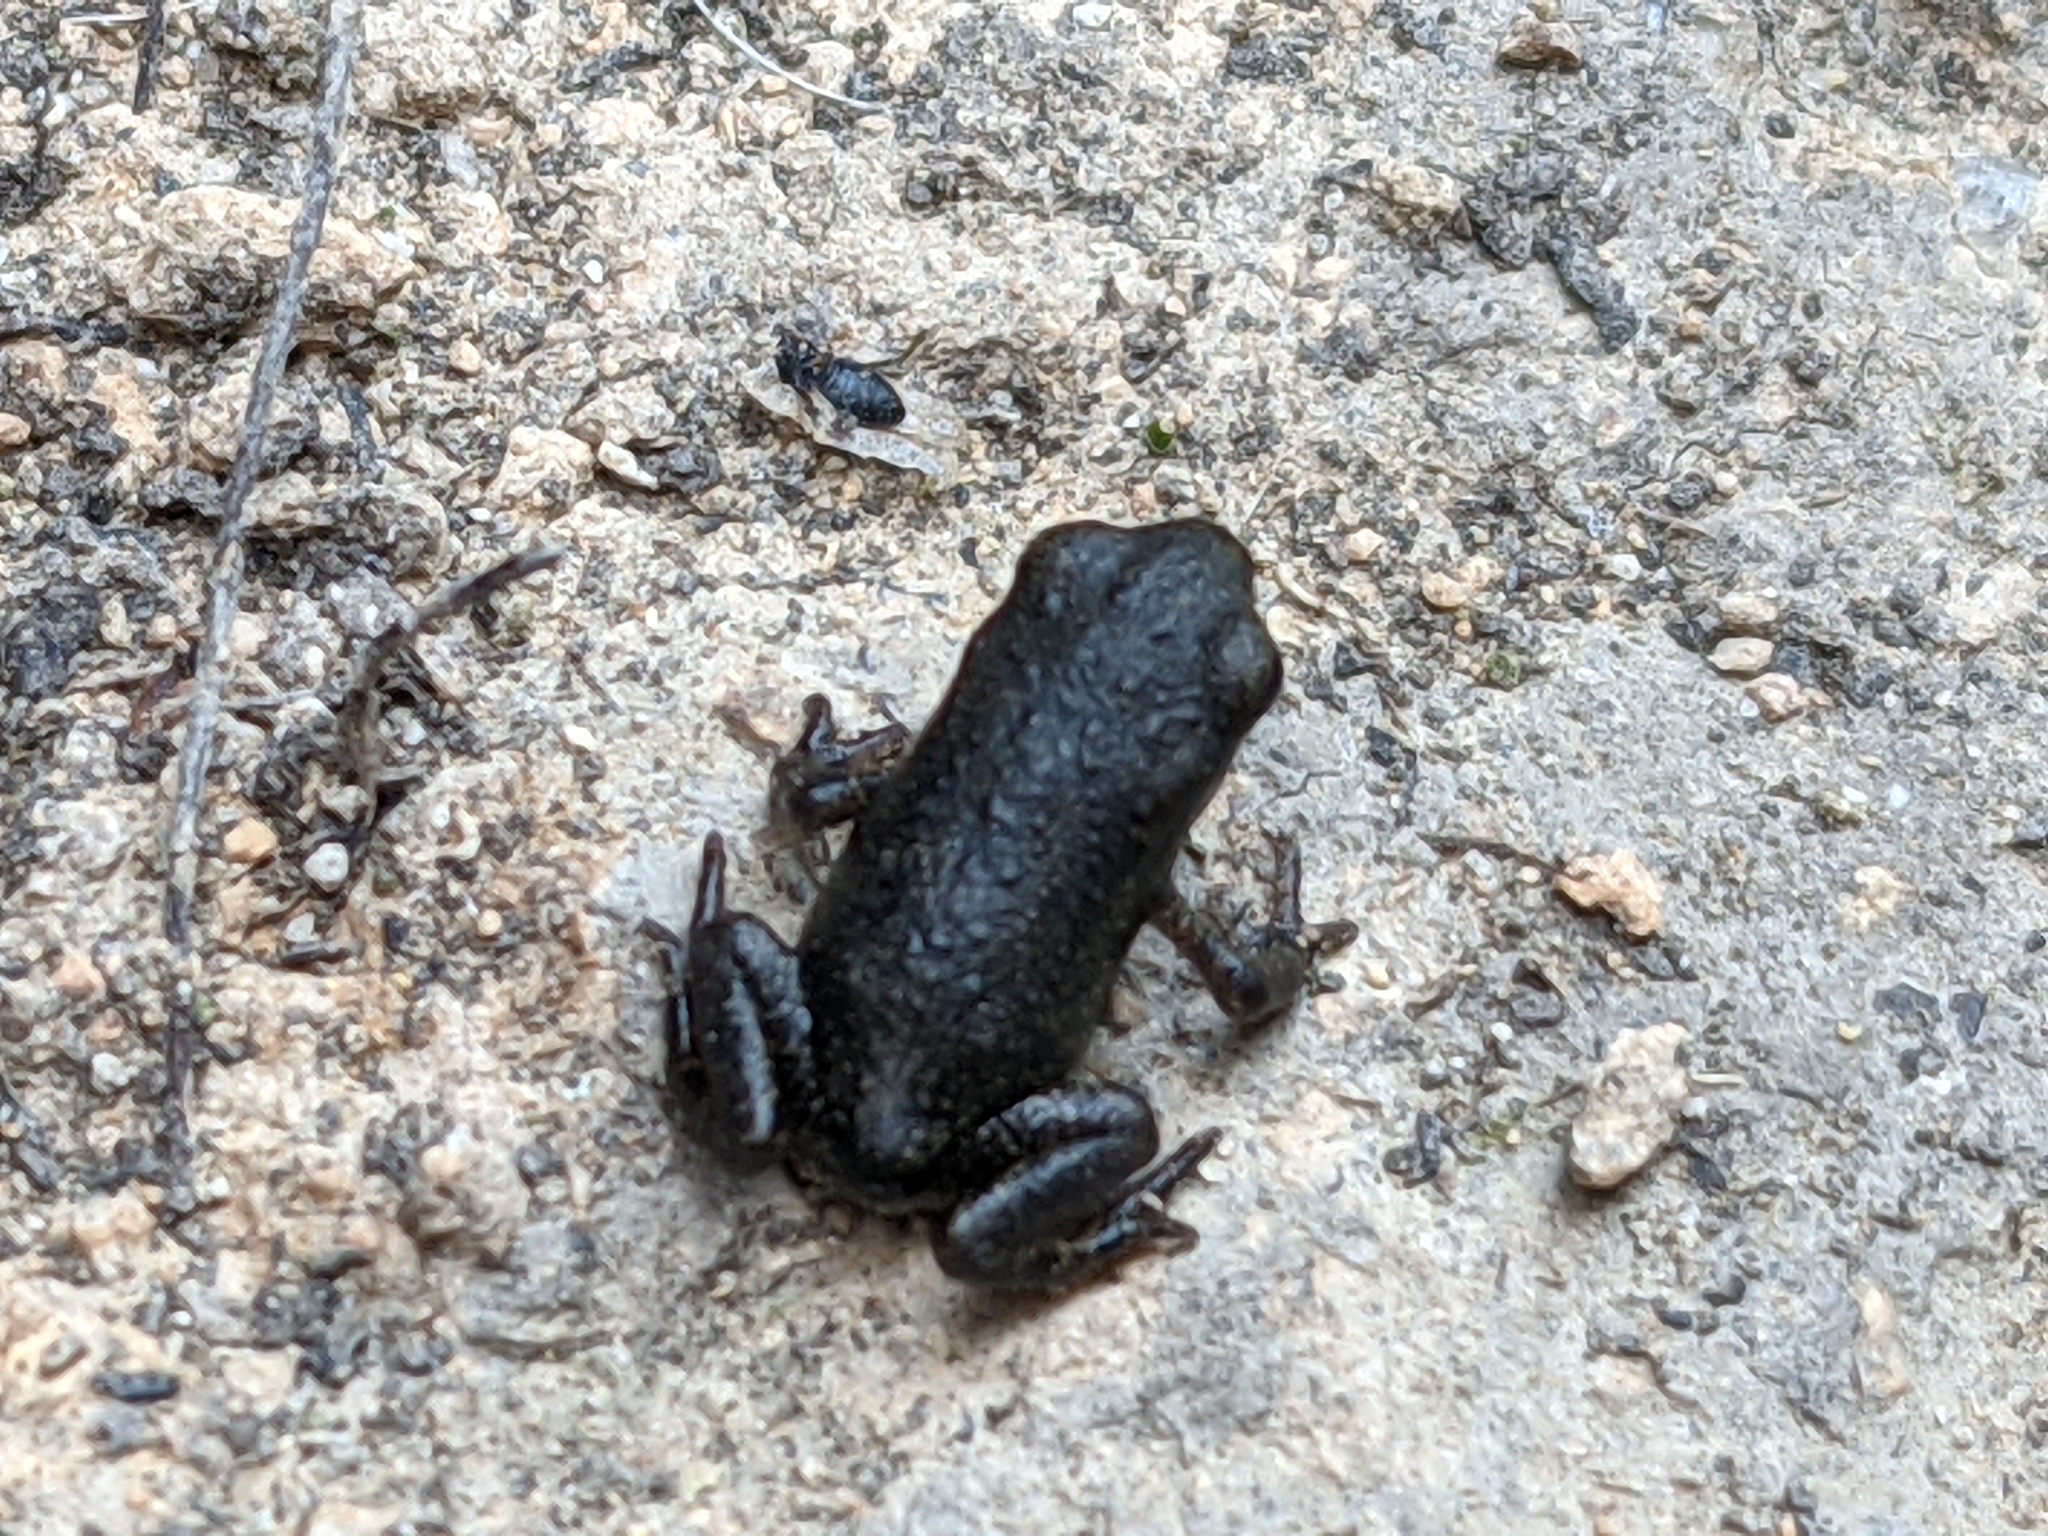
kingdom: Animalia
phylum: Chordata
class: Amphibia
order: Anura
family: Bufonidae
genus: Bufo
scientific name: Bufo bufo
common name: Common toad
